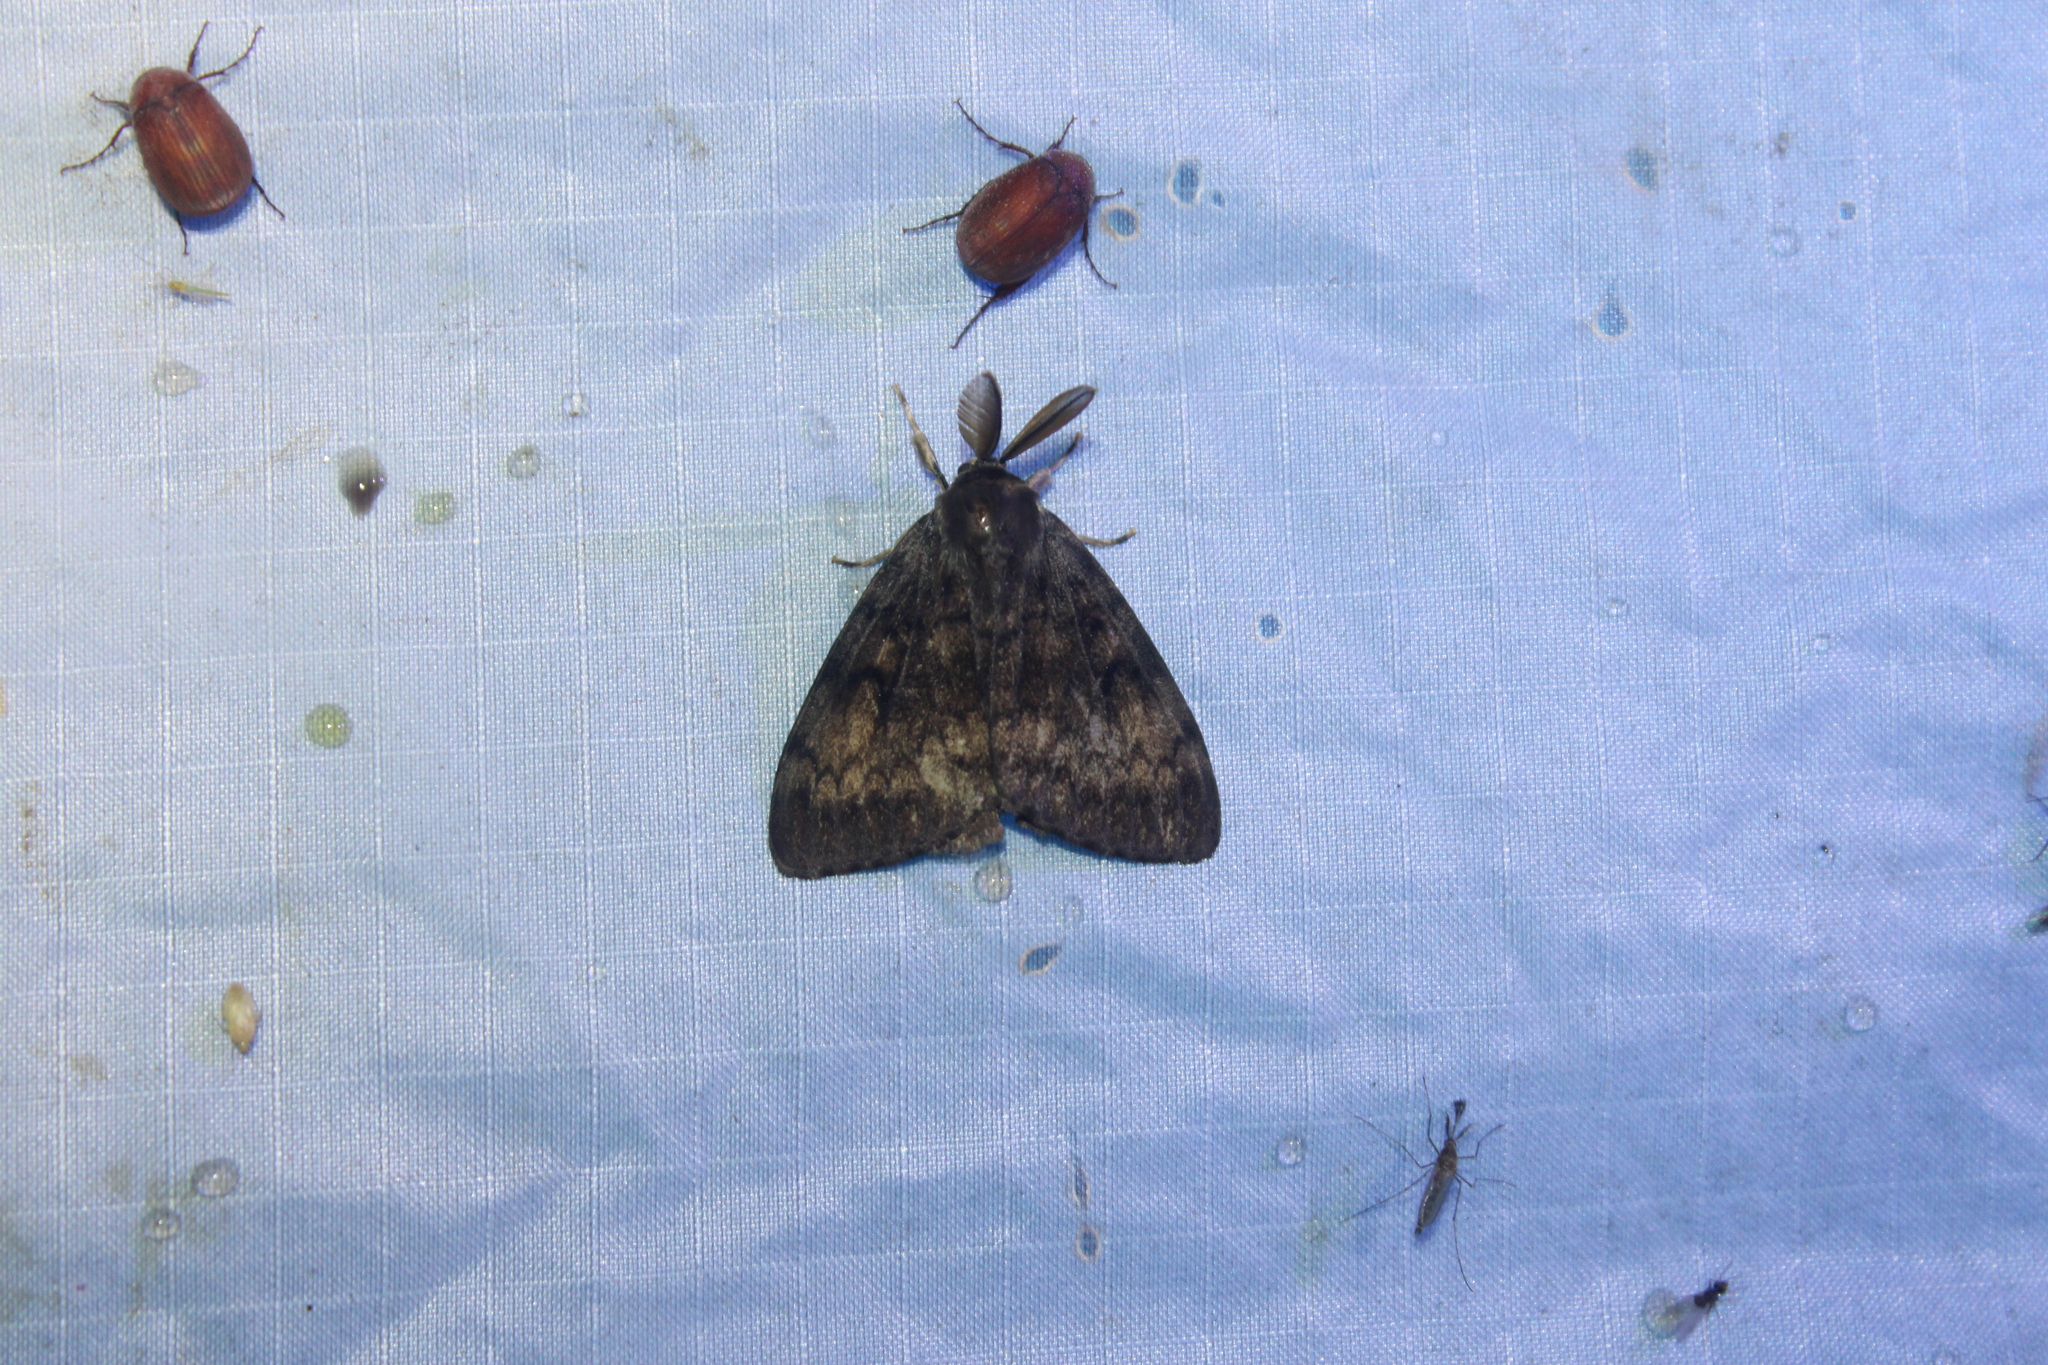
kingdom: Animalia
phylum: Arthropoda
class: Insecta
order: Lepidoptera
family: Erebidae
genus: Lymantria
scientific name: Lymantria dispar
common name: Gypsy moth
